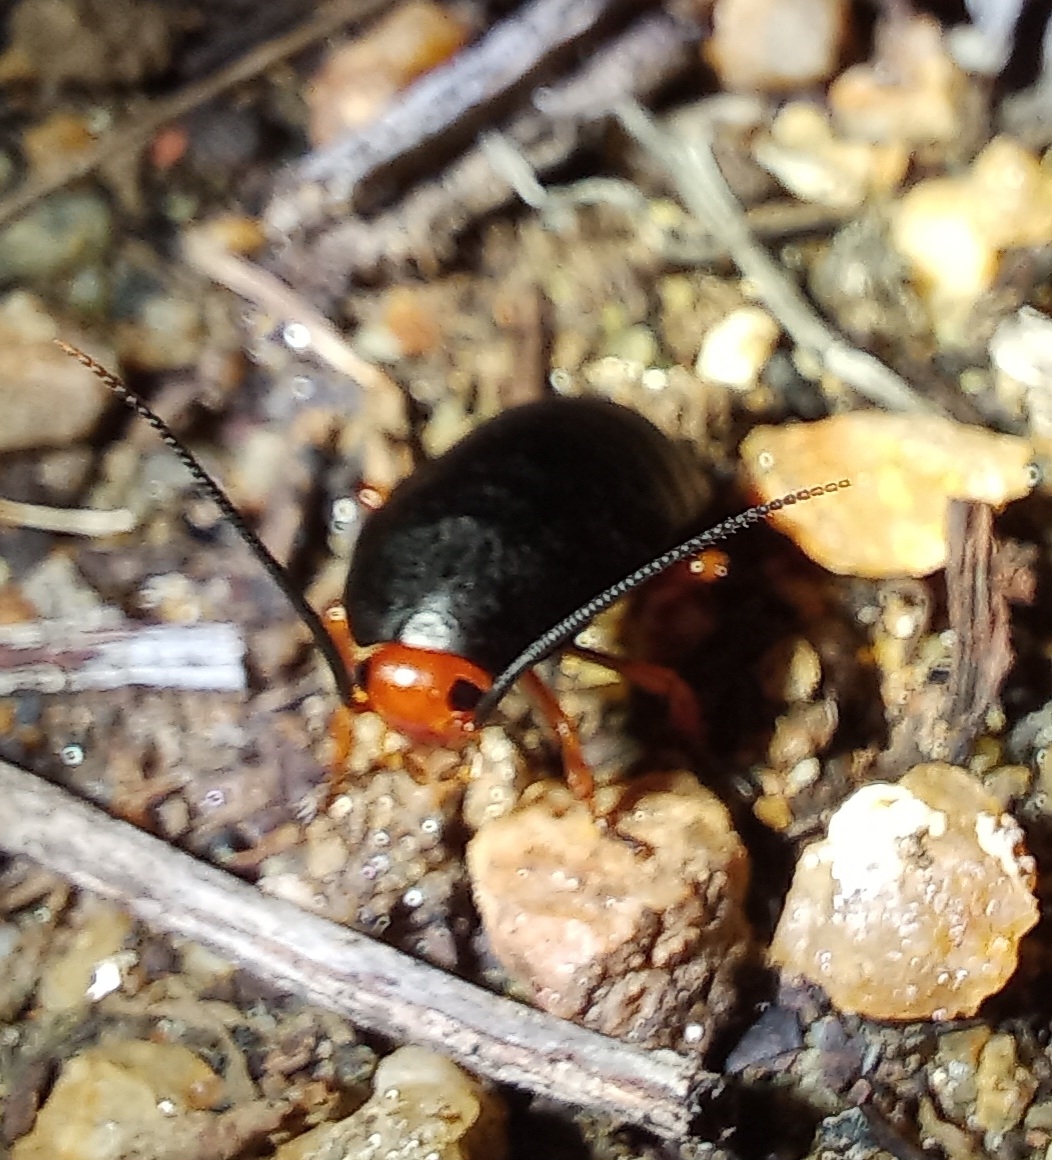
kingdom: Animalia
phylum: Arthropoda
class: Insecta
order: Blattodea
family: Blattidae
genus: Deropeltis
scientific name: Deropeltis erythrocephala
